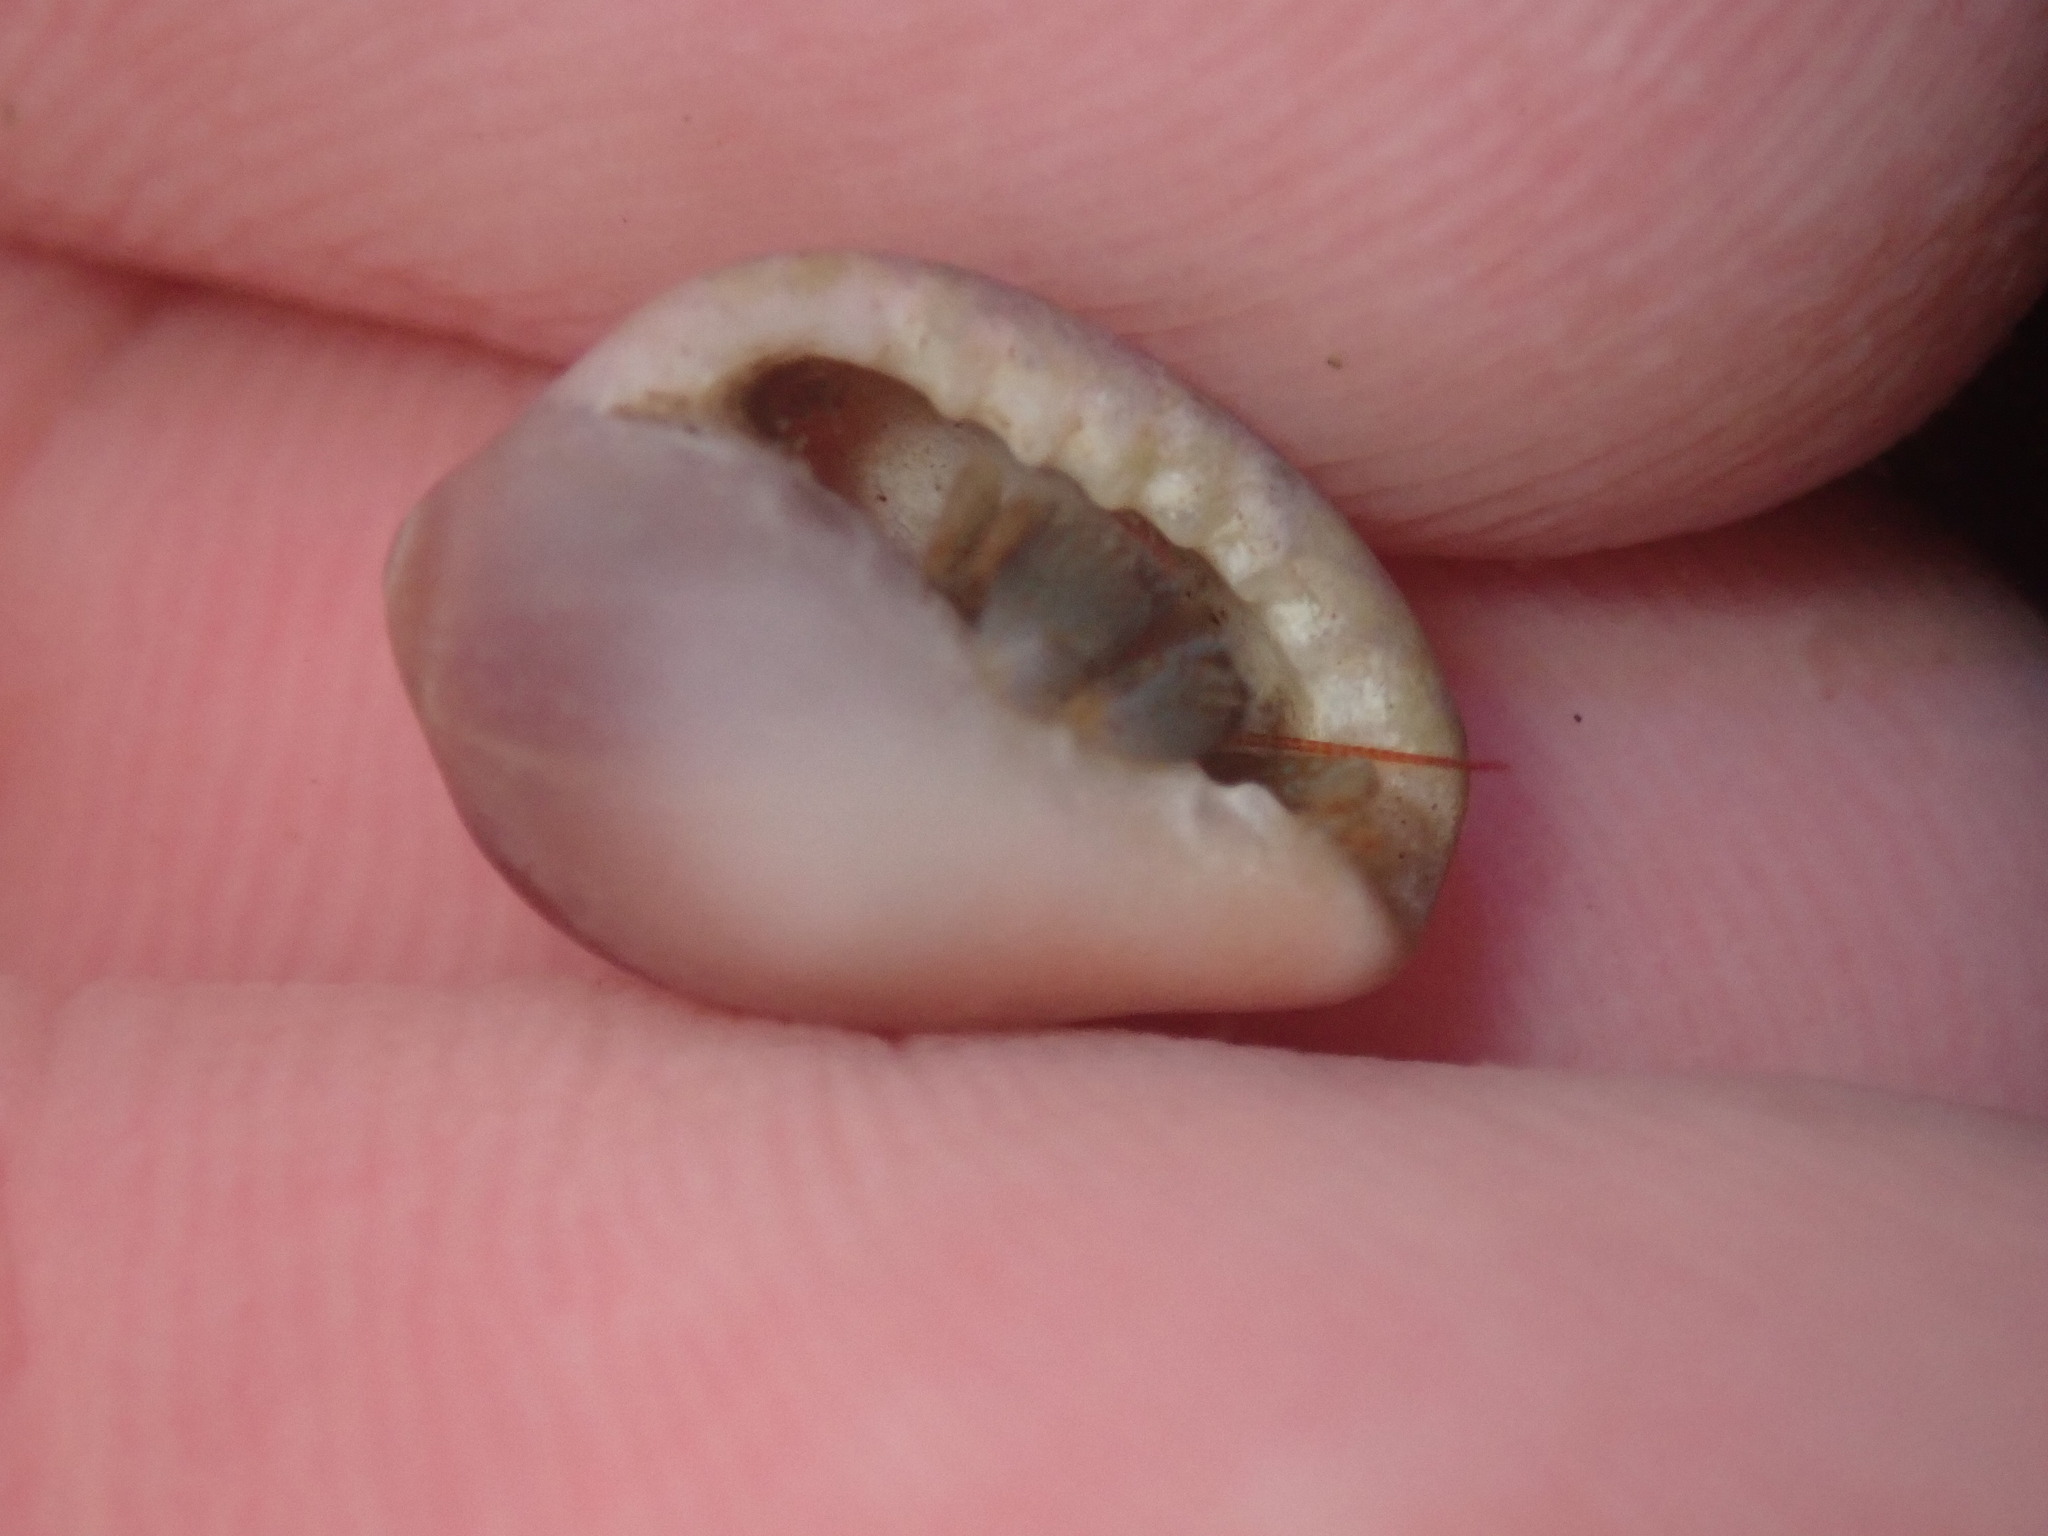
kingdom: Animalia
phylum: Mollusca
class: Gastropoda
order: Littorinimorpha
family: Eratoidae
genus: Hespererato
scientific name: Hespererato vitellina
